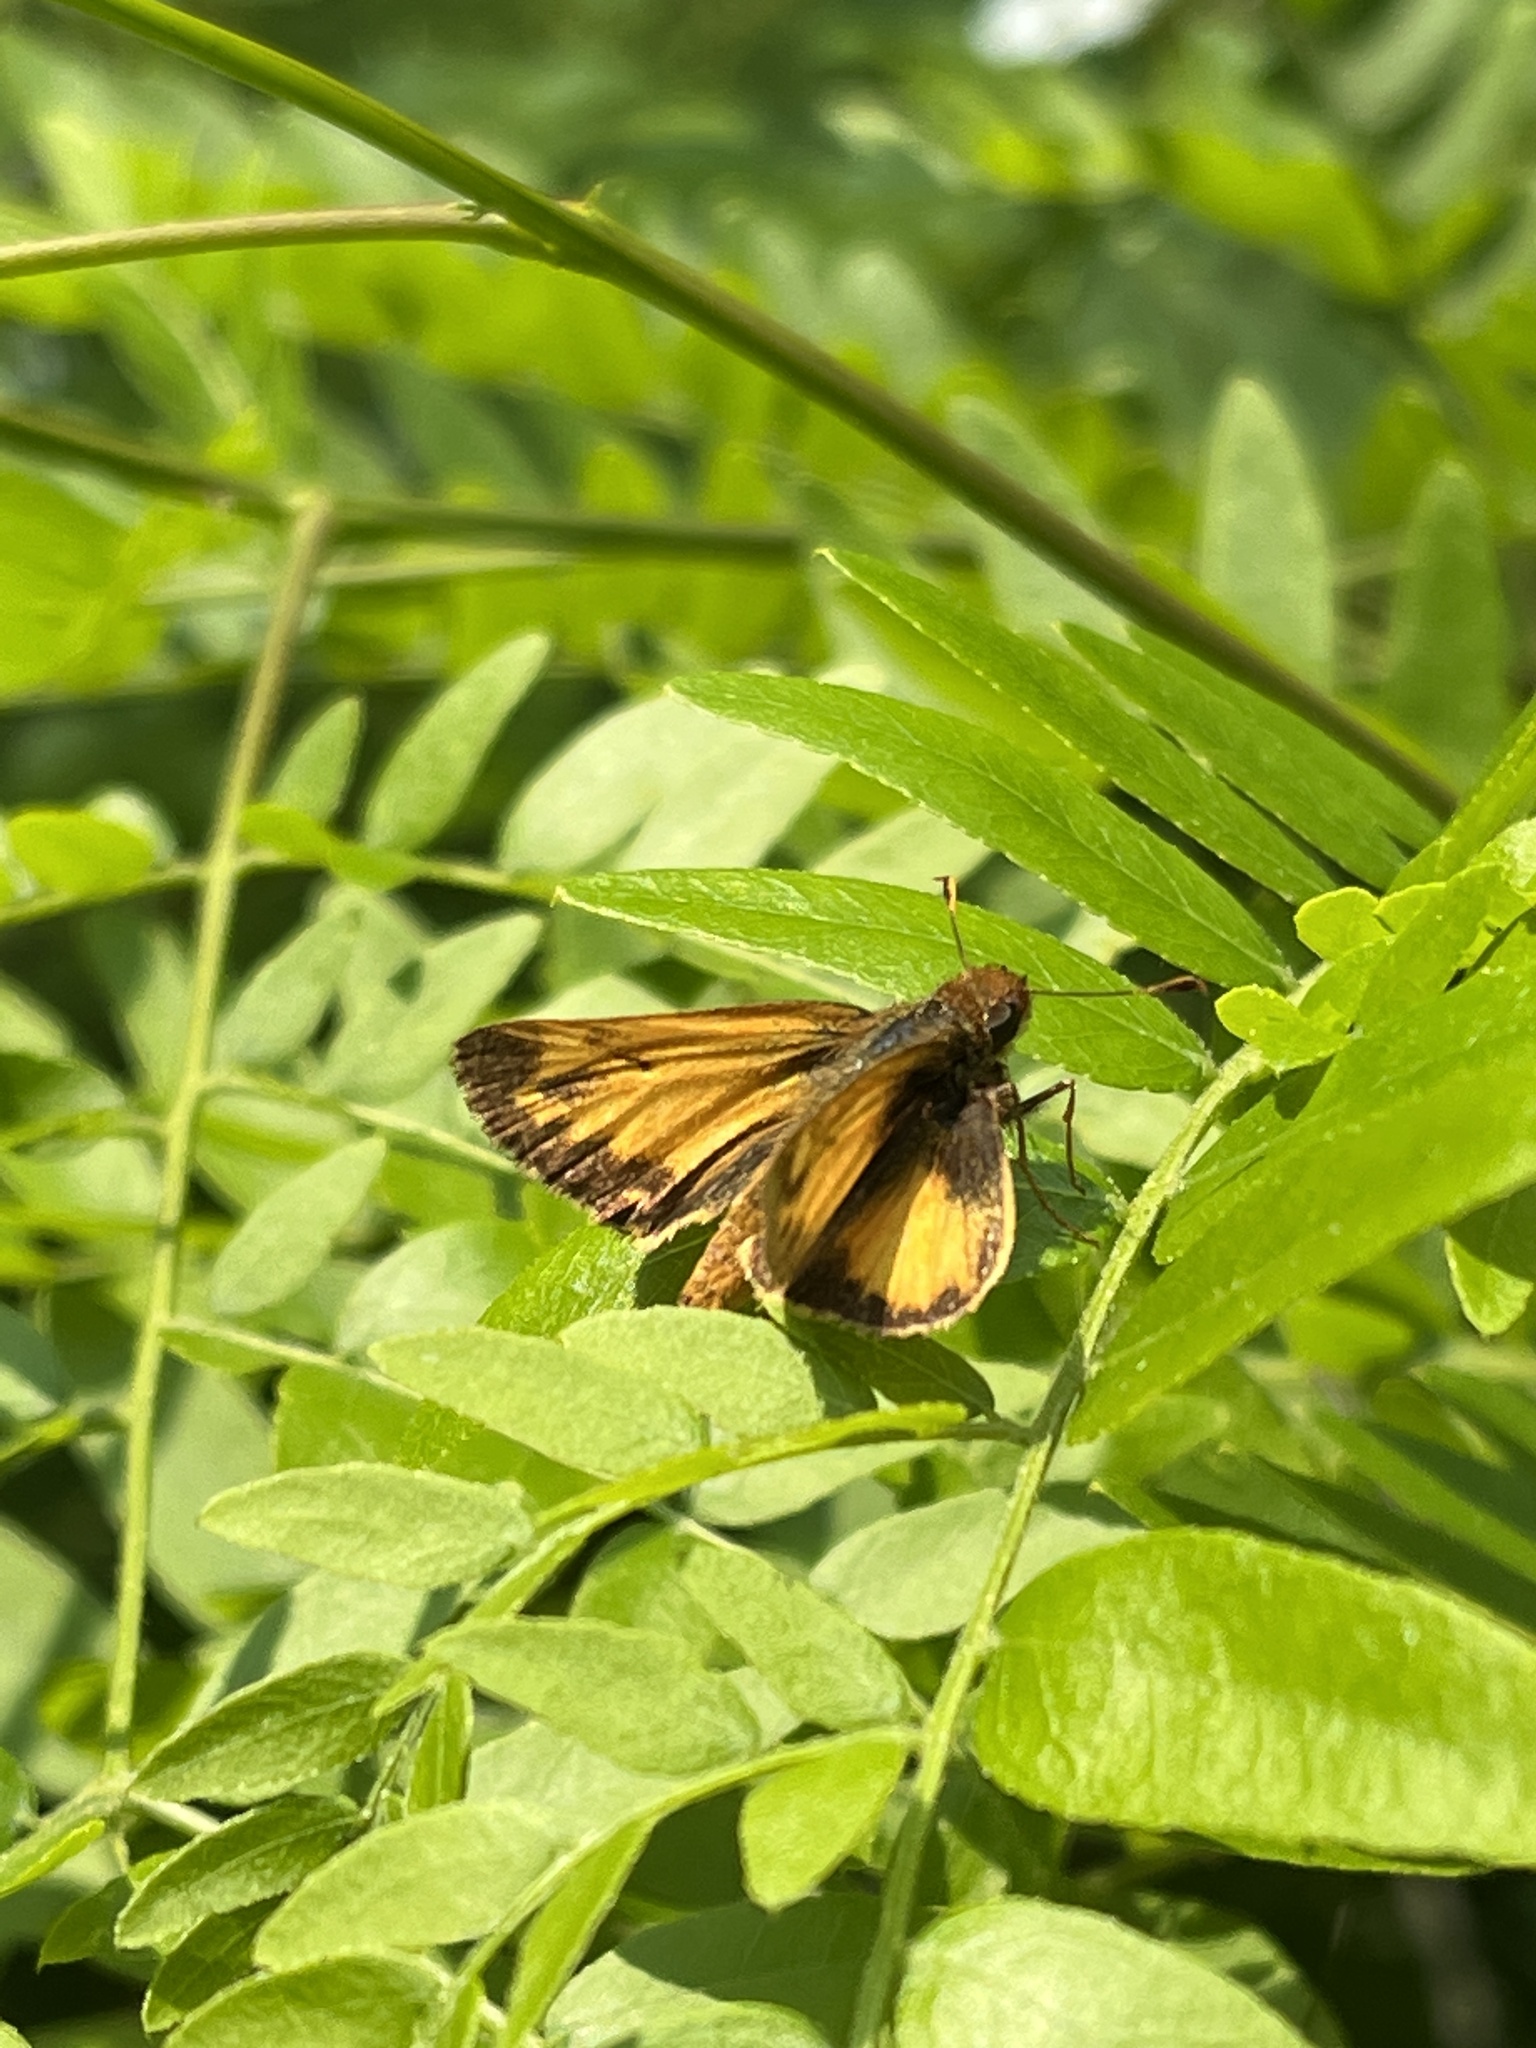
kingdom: Animalia
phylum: Arthropoda
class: Insecta
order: Lepidoptera
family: Hesperiidae
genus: Lon
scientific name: Lon zabulon
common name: Zabulon skipper
